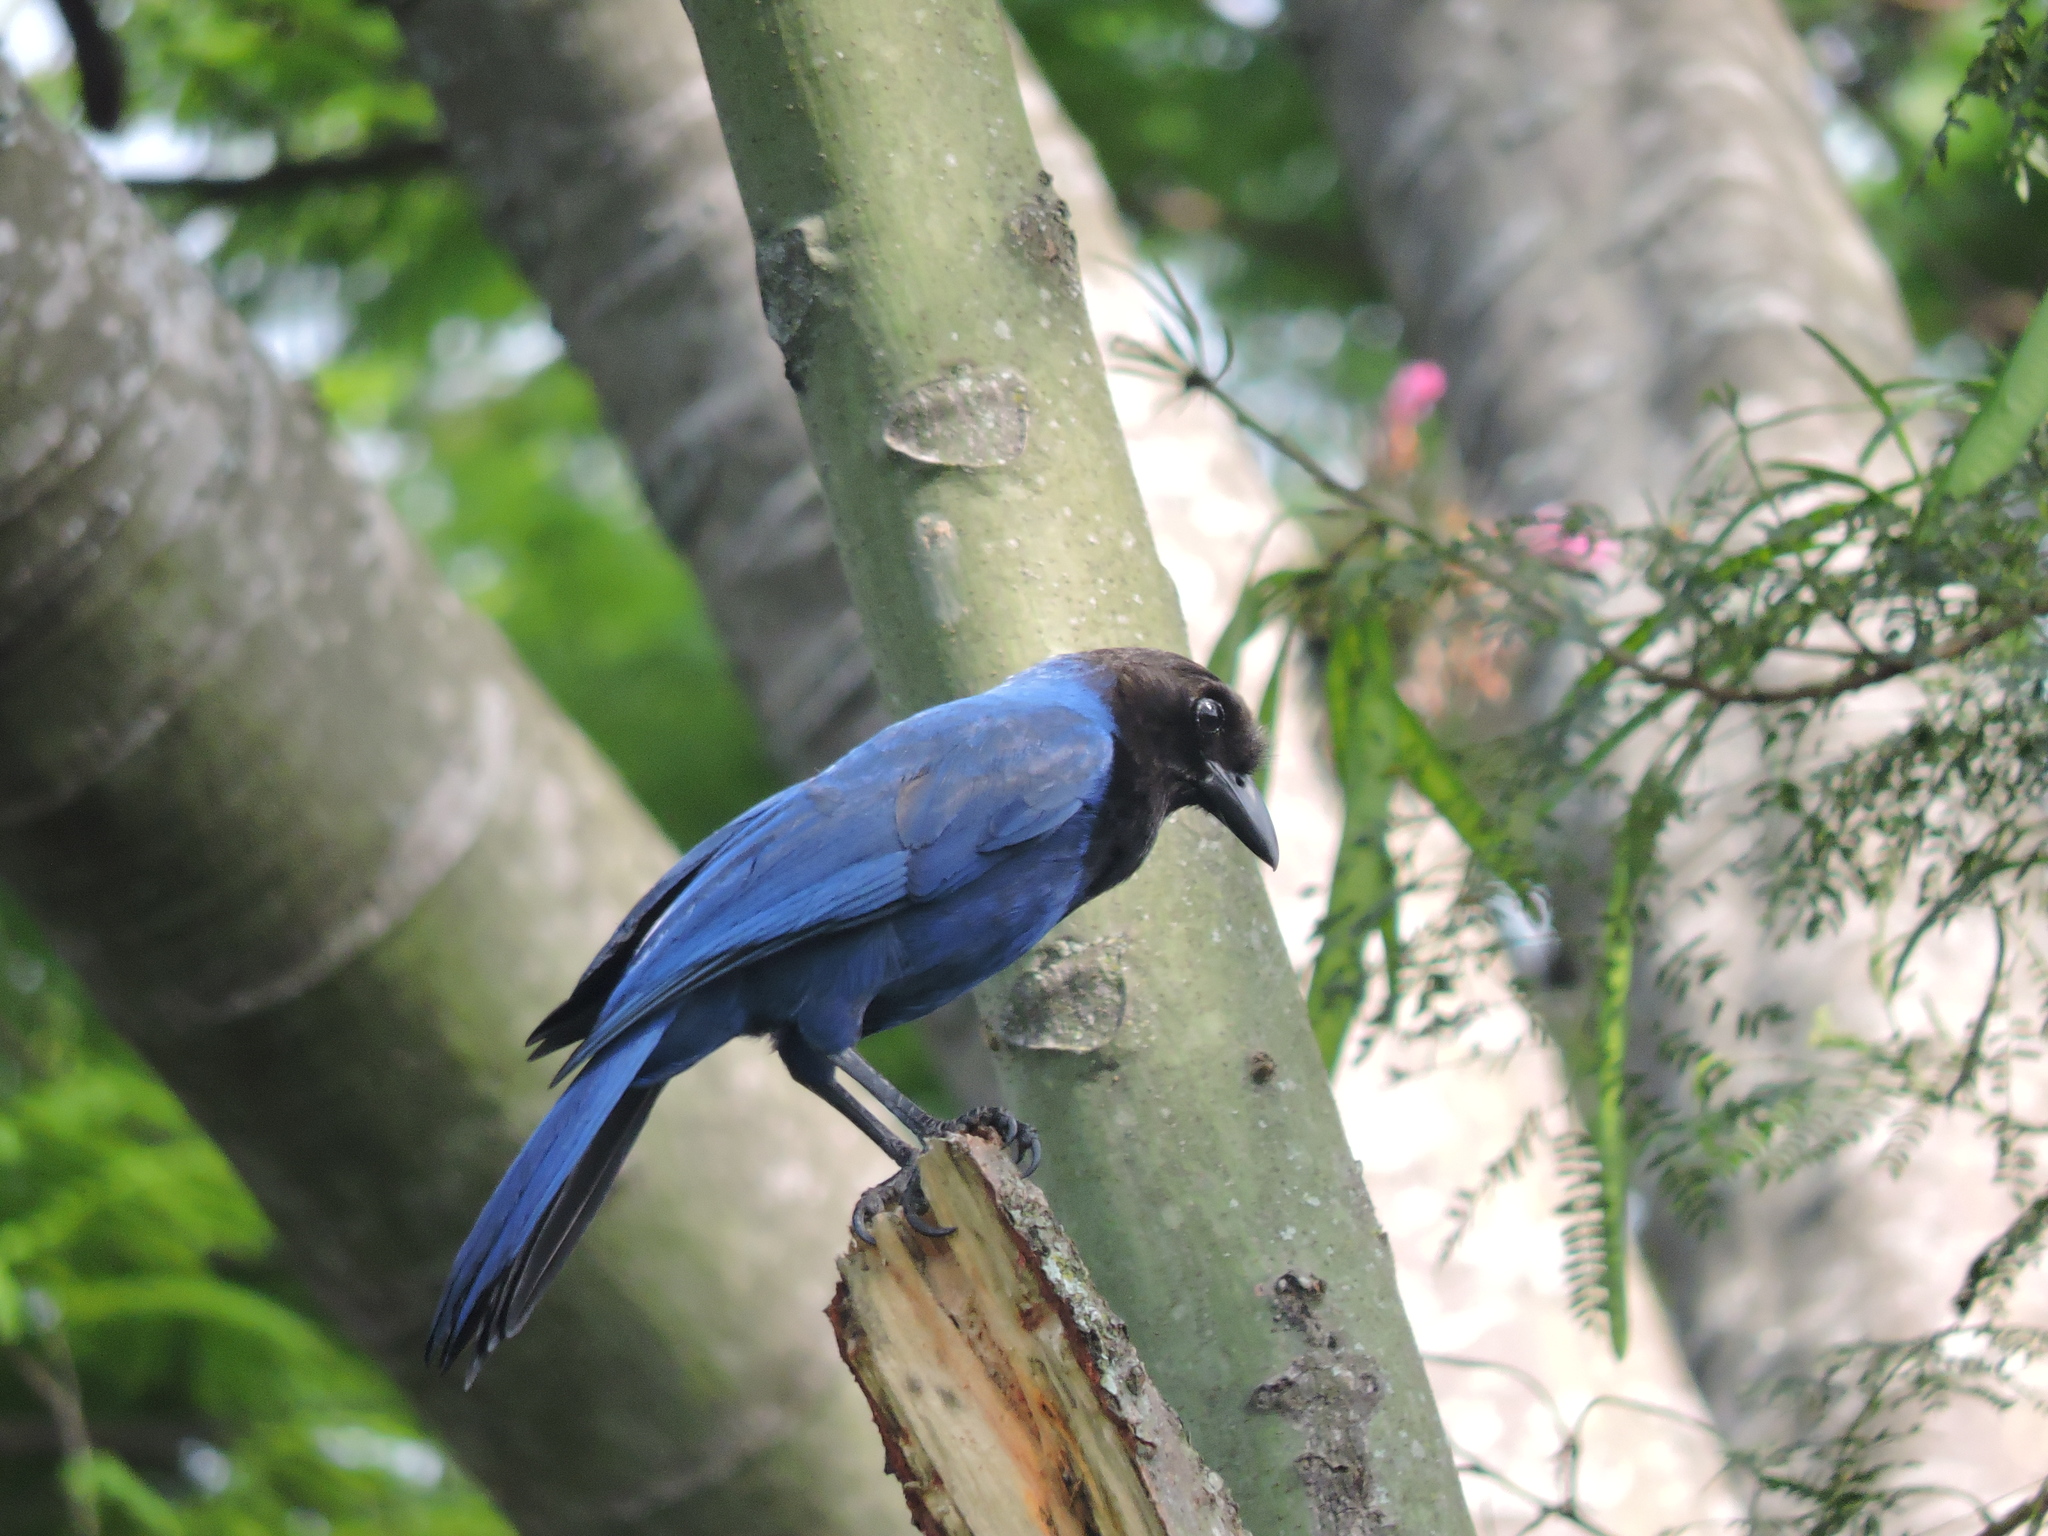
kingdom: Animalia
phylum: Chordata
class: Aves
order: Passeriformes
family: Corvidae
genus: Cyanocorax
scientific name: Cyanocorax caeruleus
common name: Azure jay
